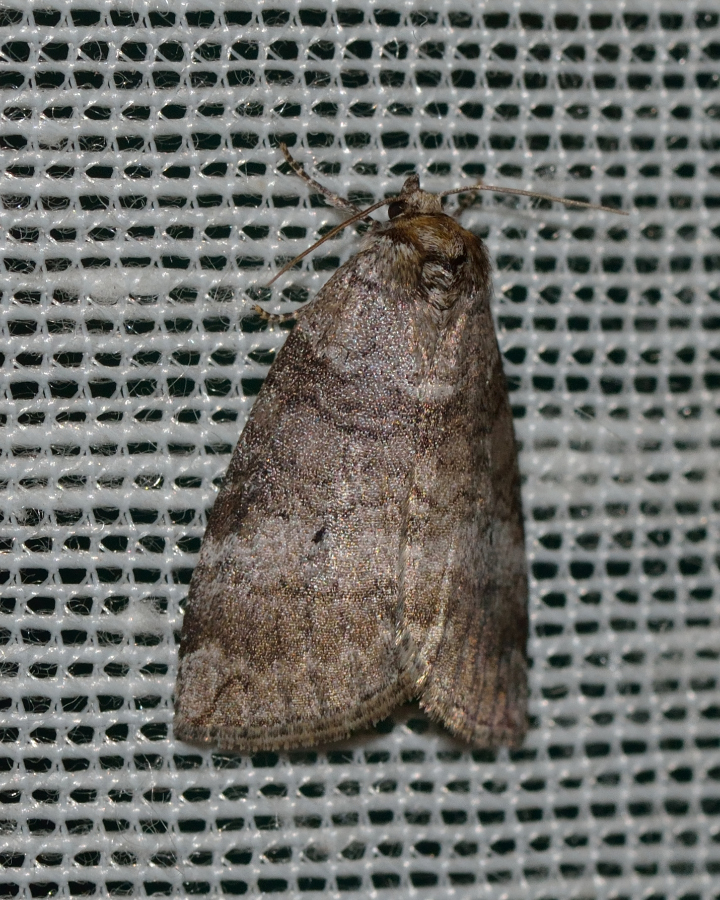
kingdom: Animalia
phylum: Arthropoda
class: Insecta
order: Lepidoptera
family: Drepanidae
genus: Ochropacha
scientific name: Ochropacha duplaris
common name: Common lutestring
